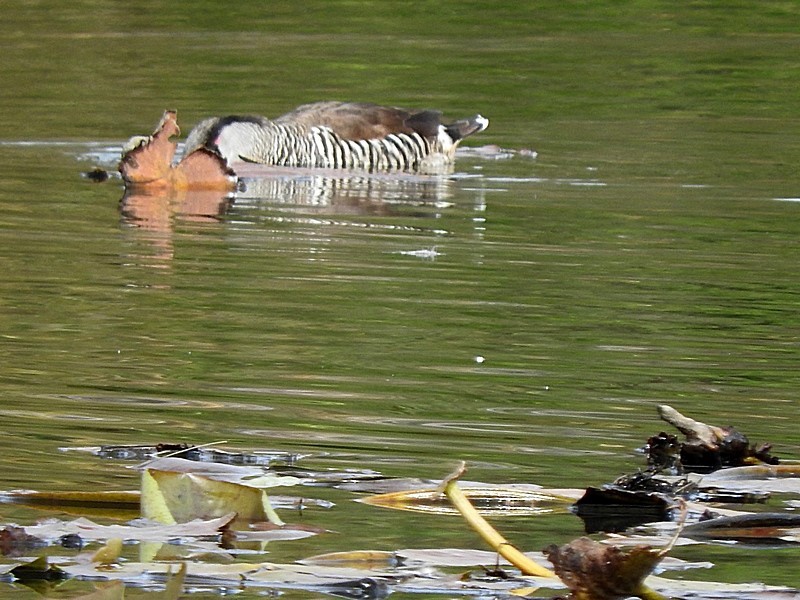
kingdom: Animalia
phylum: Chordata
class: Aves
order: Anseriformes
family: Anatidae
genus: Malacorhynchus
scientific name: Malacorhynchus membranaceus
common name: Pink-eared duck
